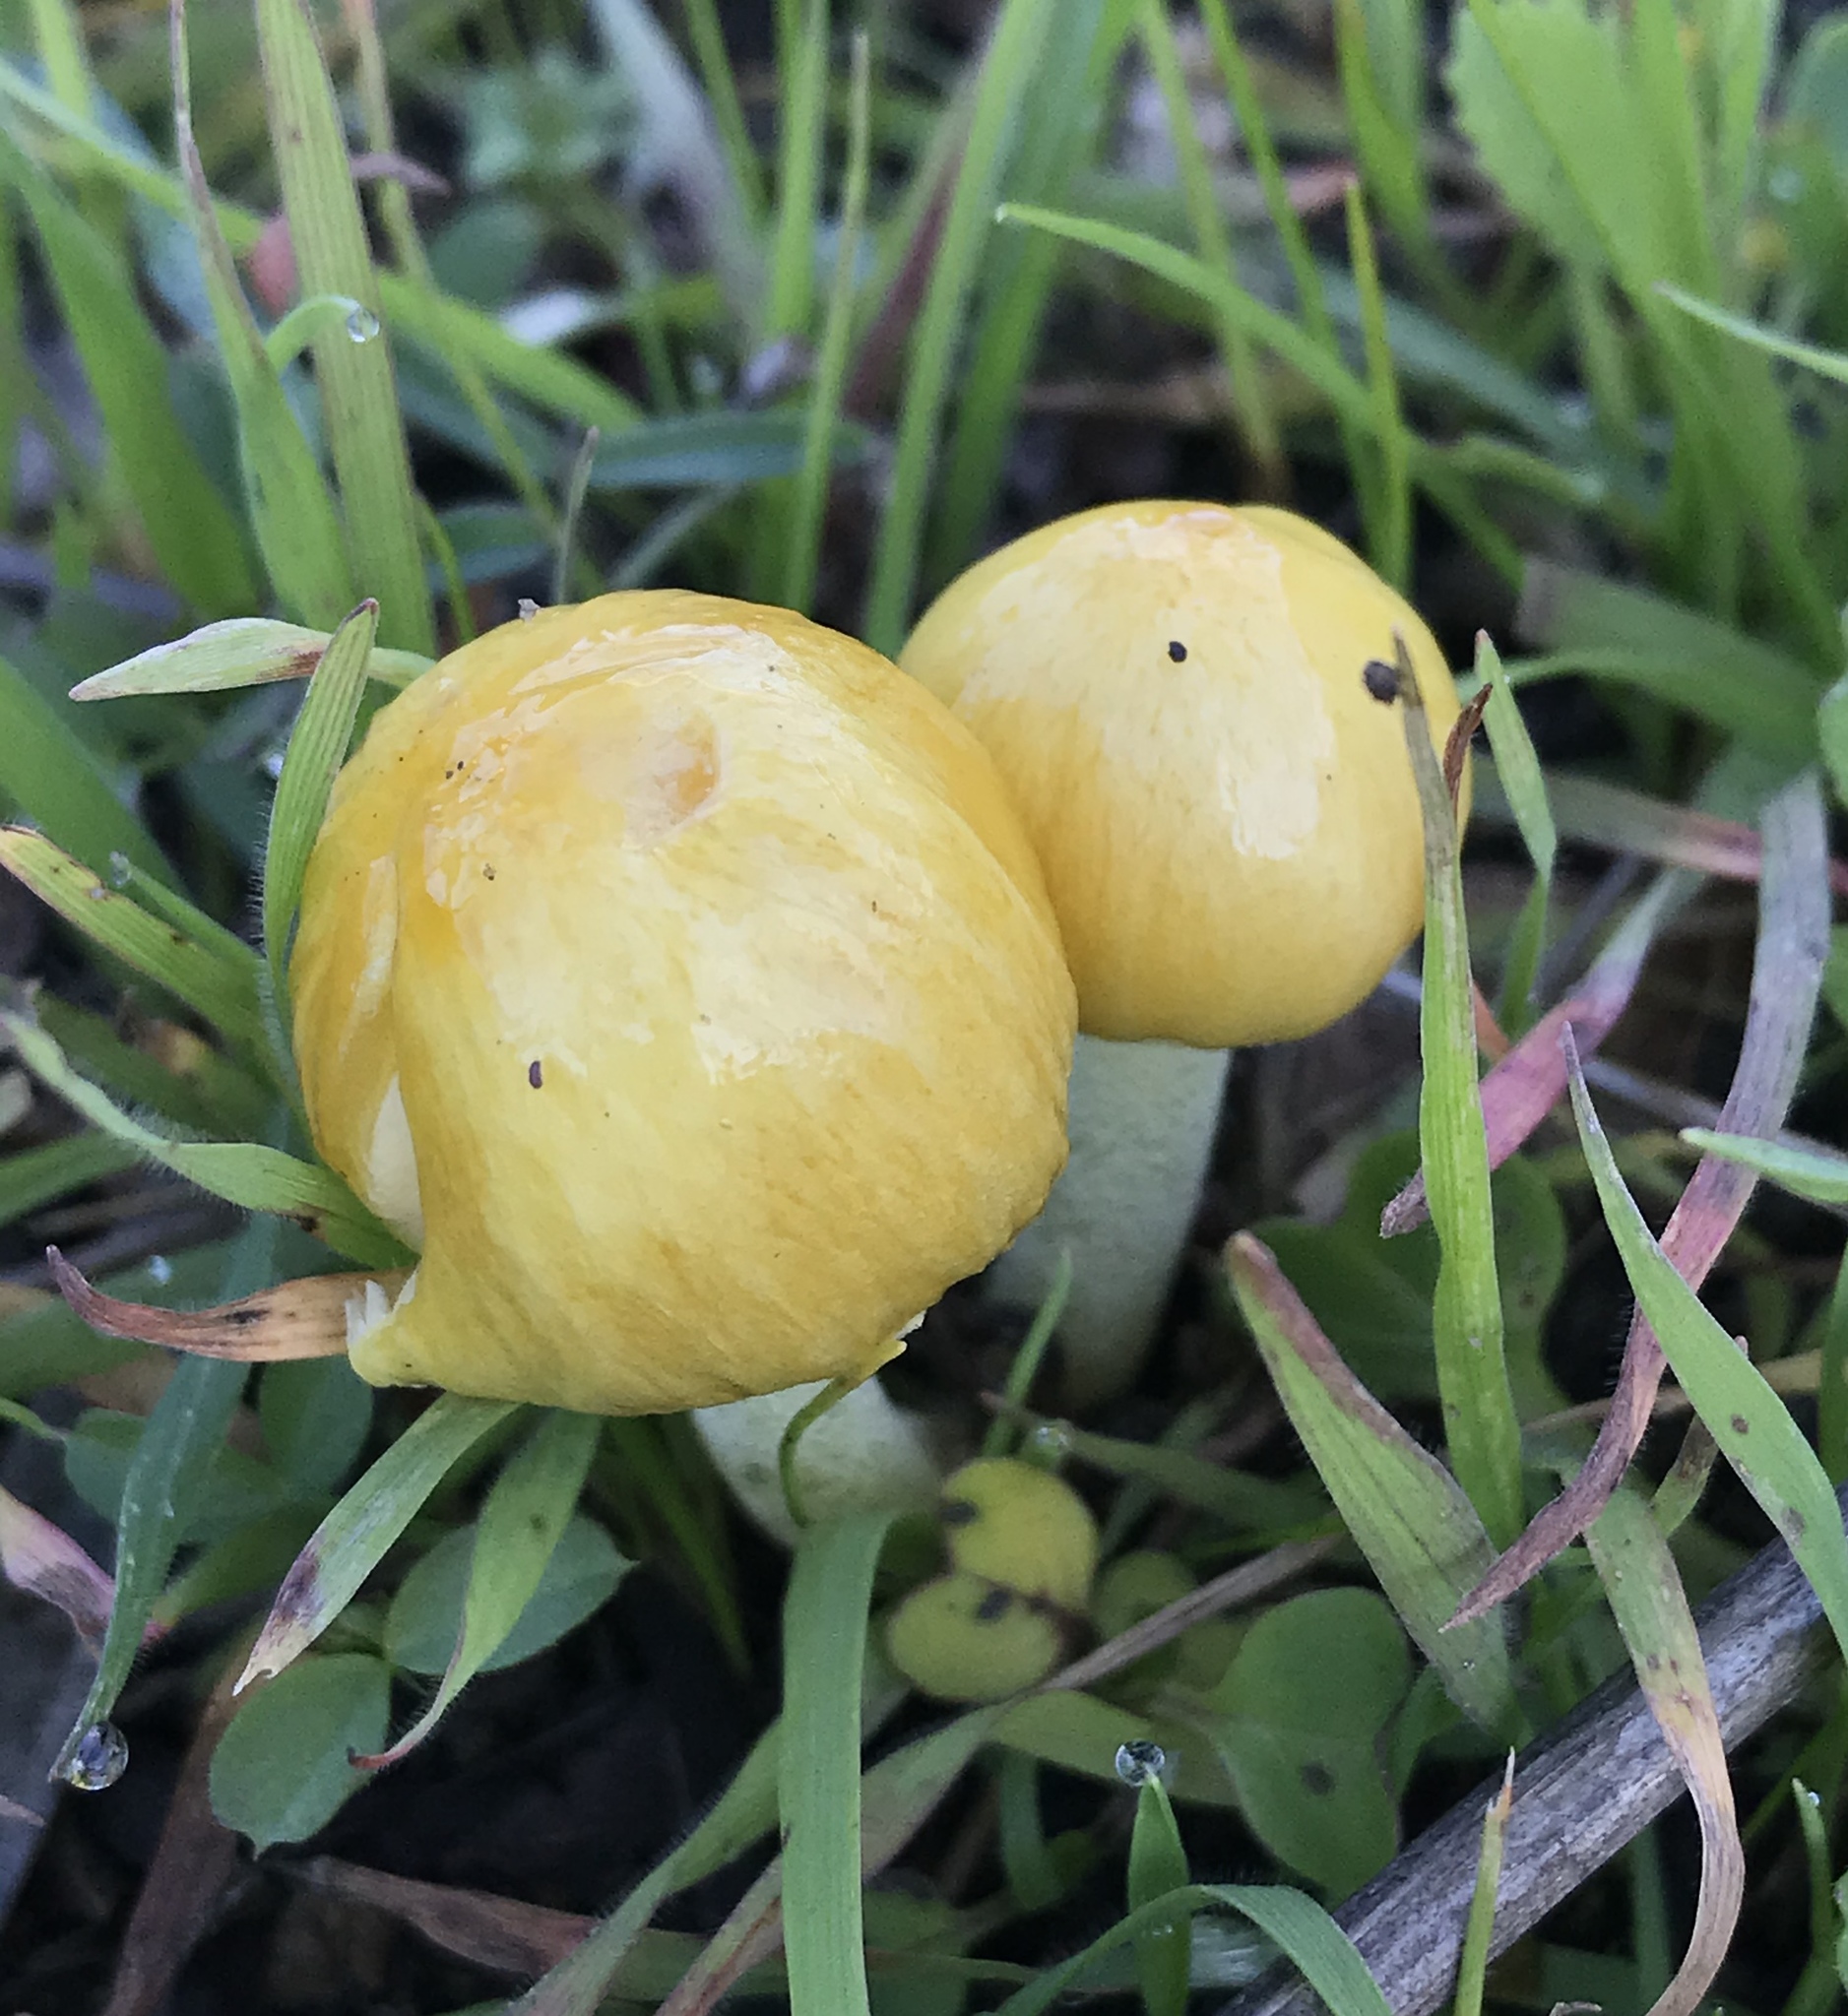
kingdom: Fungi
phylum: Basidiomycota
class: Agaricomycetes
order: Agaricales
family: Bolbitiaceae
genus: Bolbitius
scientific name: Bolbitius titubans
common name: Yellow fieldcap
